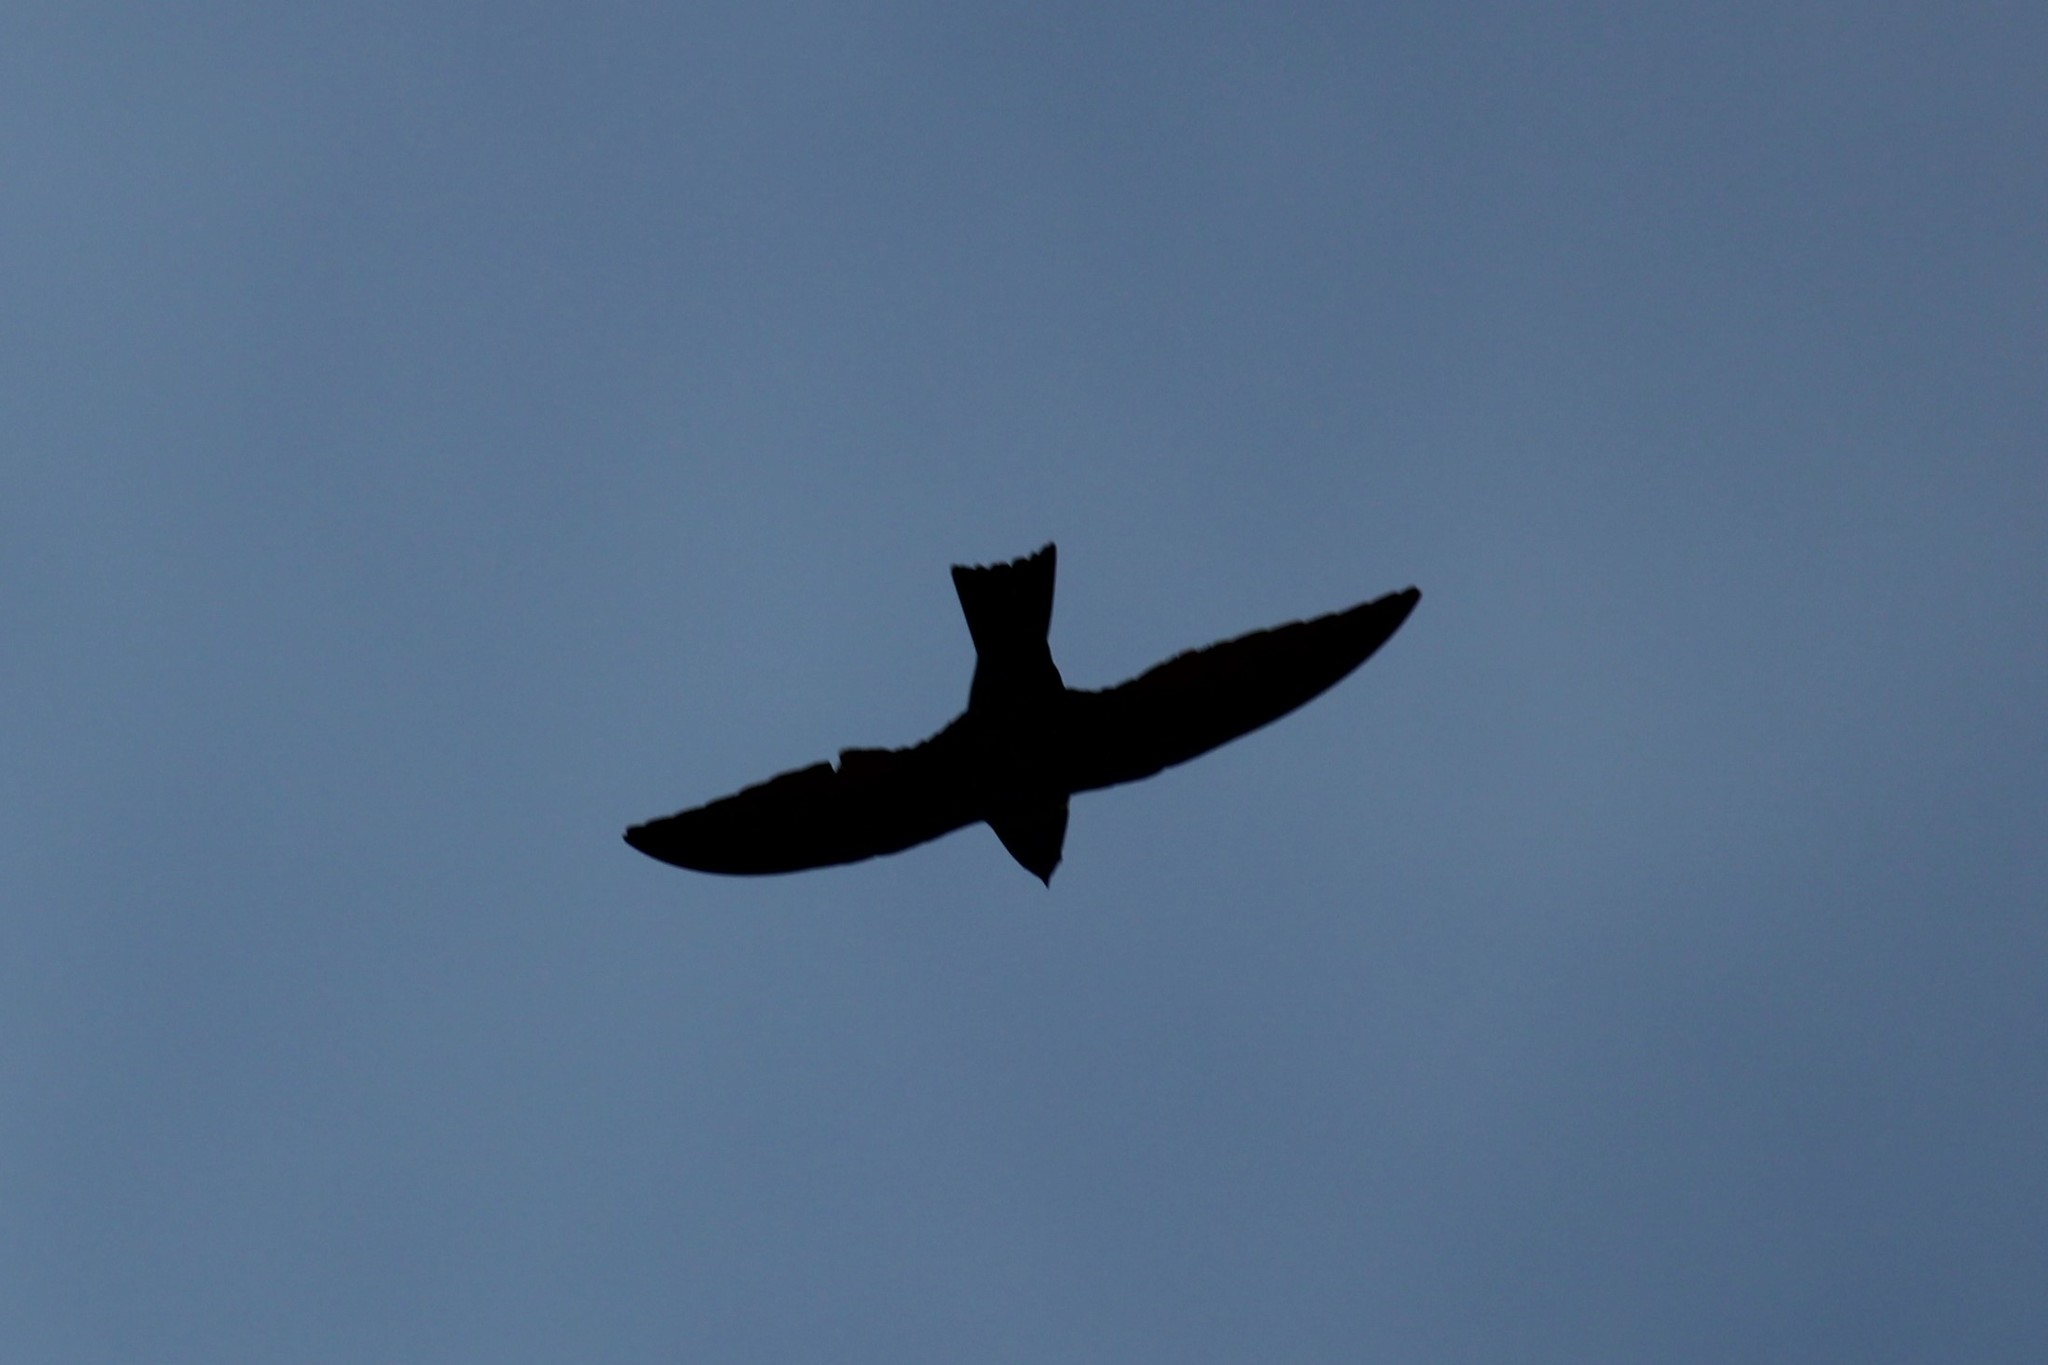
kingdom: Animalia
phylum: Chordata
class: Aves
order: Apodiformes
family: Apodidae
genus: Streptoprocne
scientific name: Streptoprocne zonaris
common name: White-collared swift
